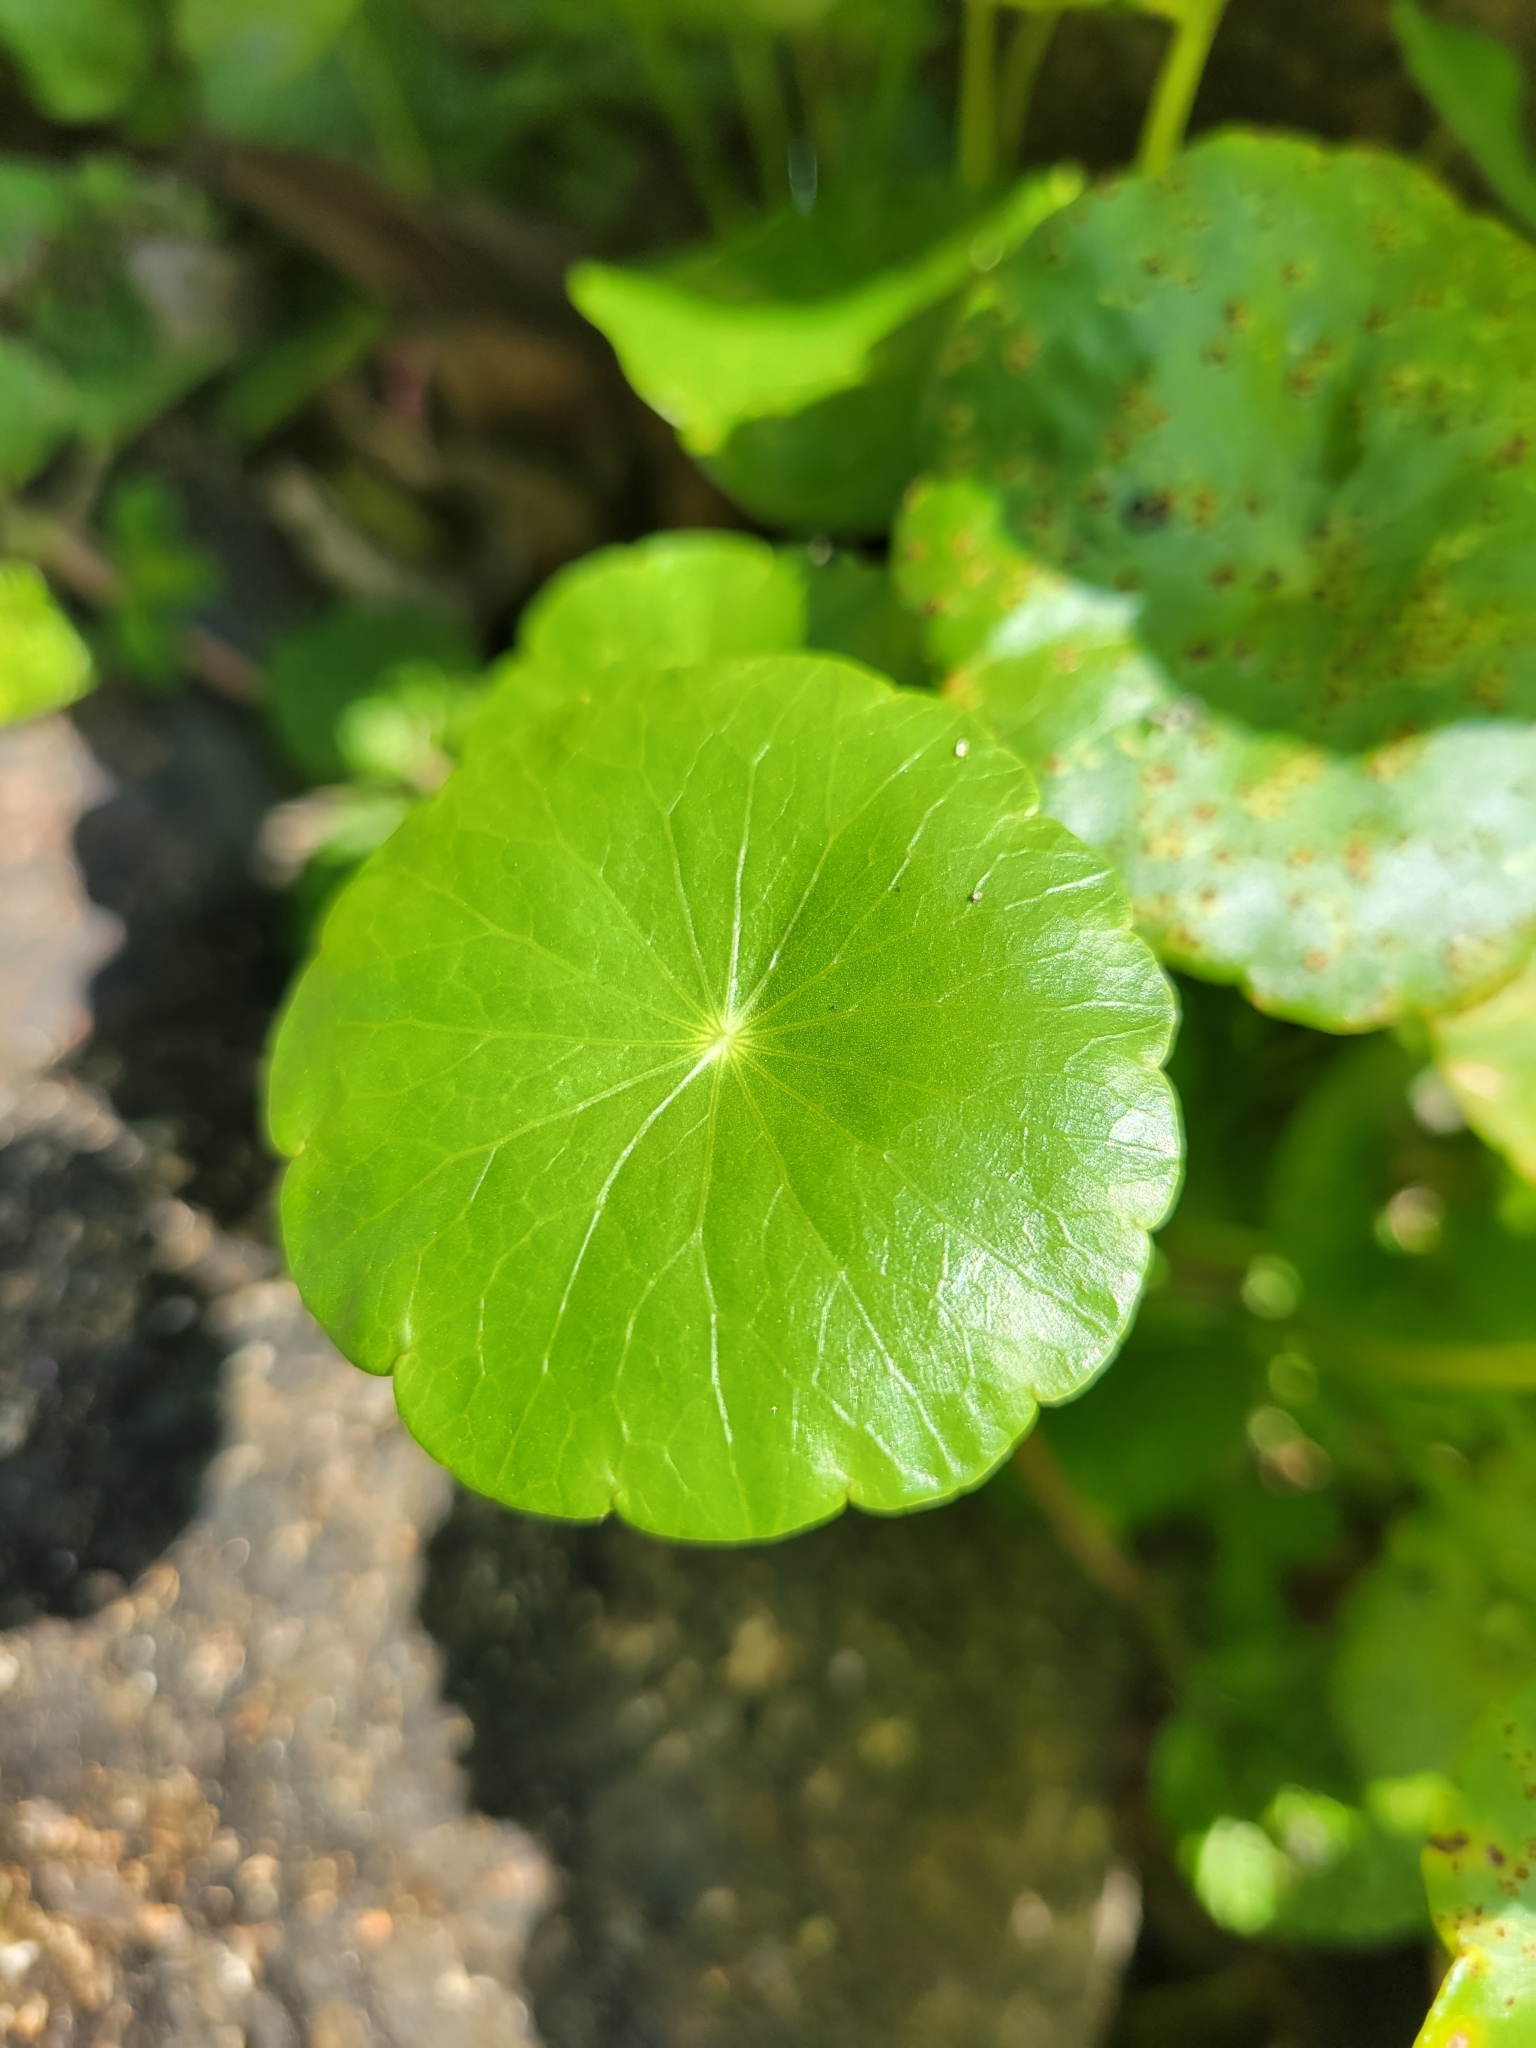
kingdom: Plantae
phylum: Tracheophyta
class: Magnoliopsida
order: Apiales
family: Araliaceae
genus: Hydrocotyle
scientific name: Hydrocotyle verticillata
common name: Whorled marshpennywort
